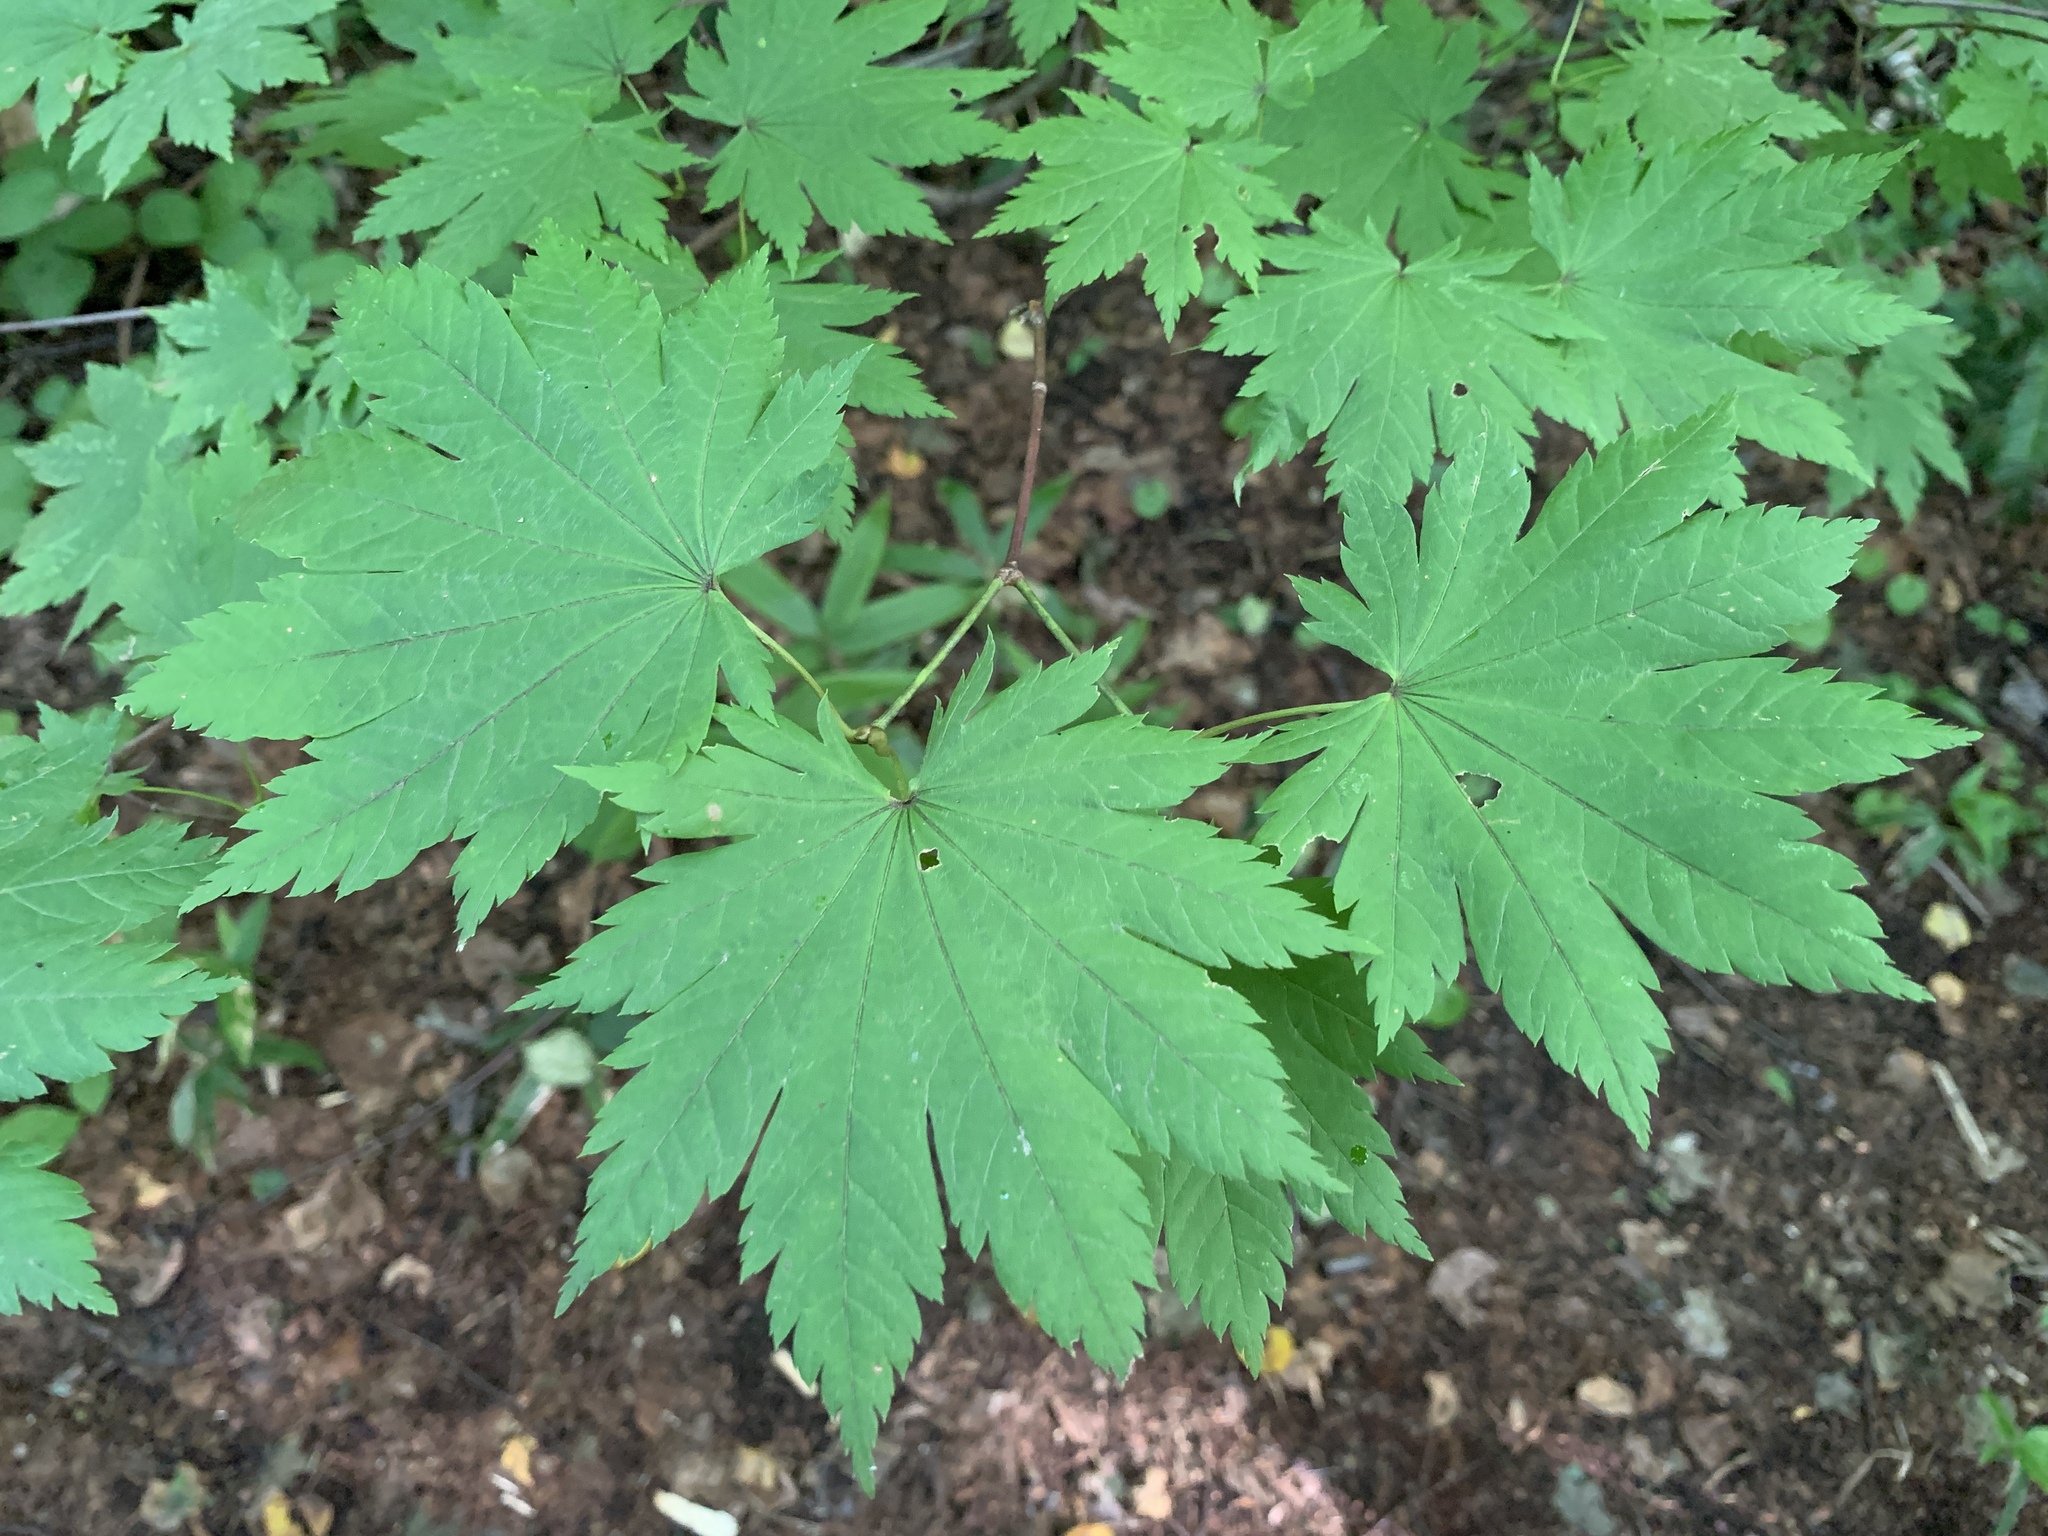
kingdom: Plantae
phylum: Tracheophyta
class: Magnoliopsida
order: Sapindales
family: Sapindaceae
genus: Acer
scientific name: Acer japonicum
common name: Amur maple
